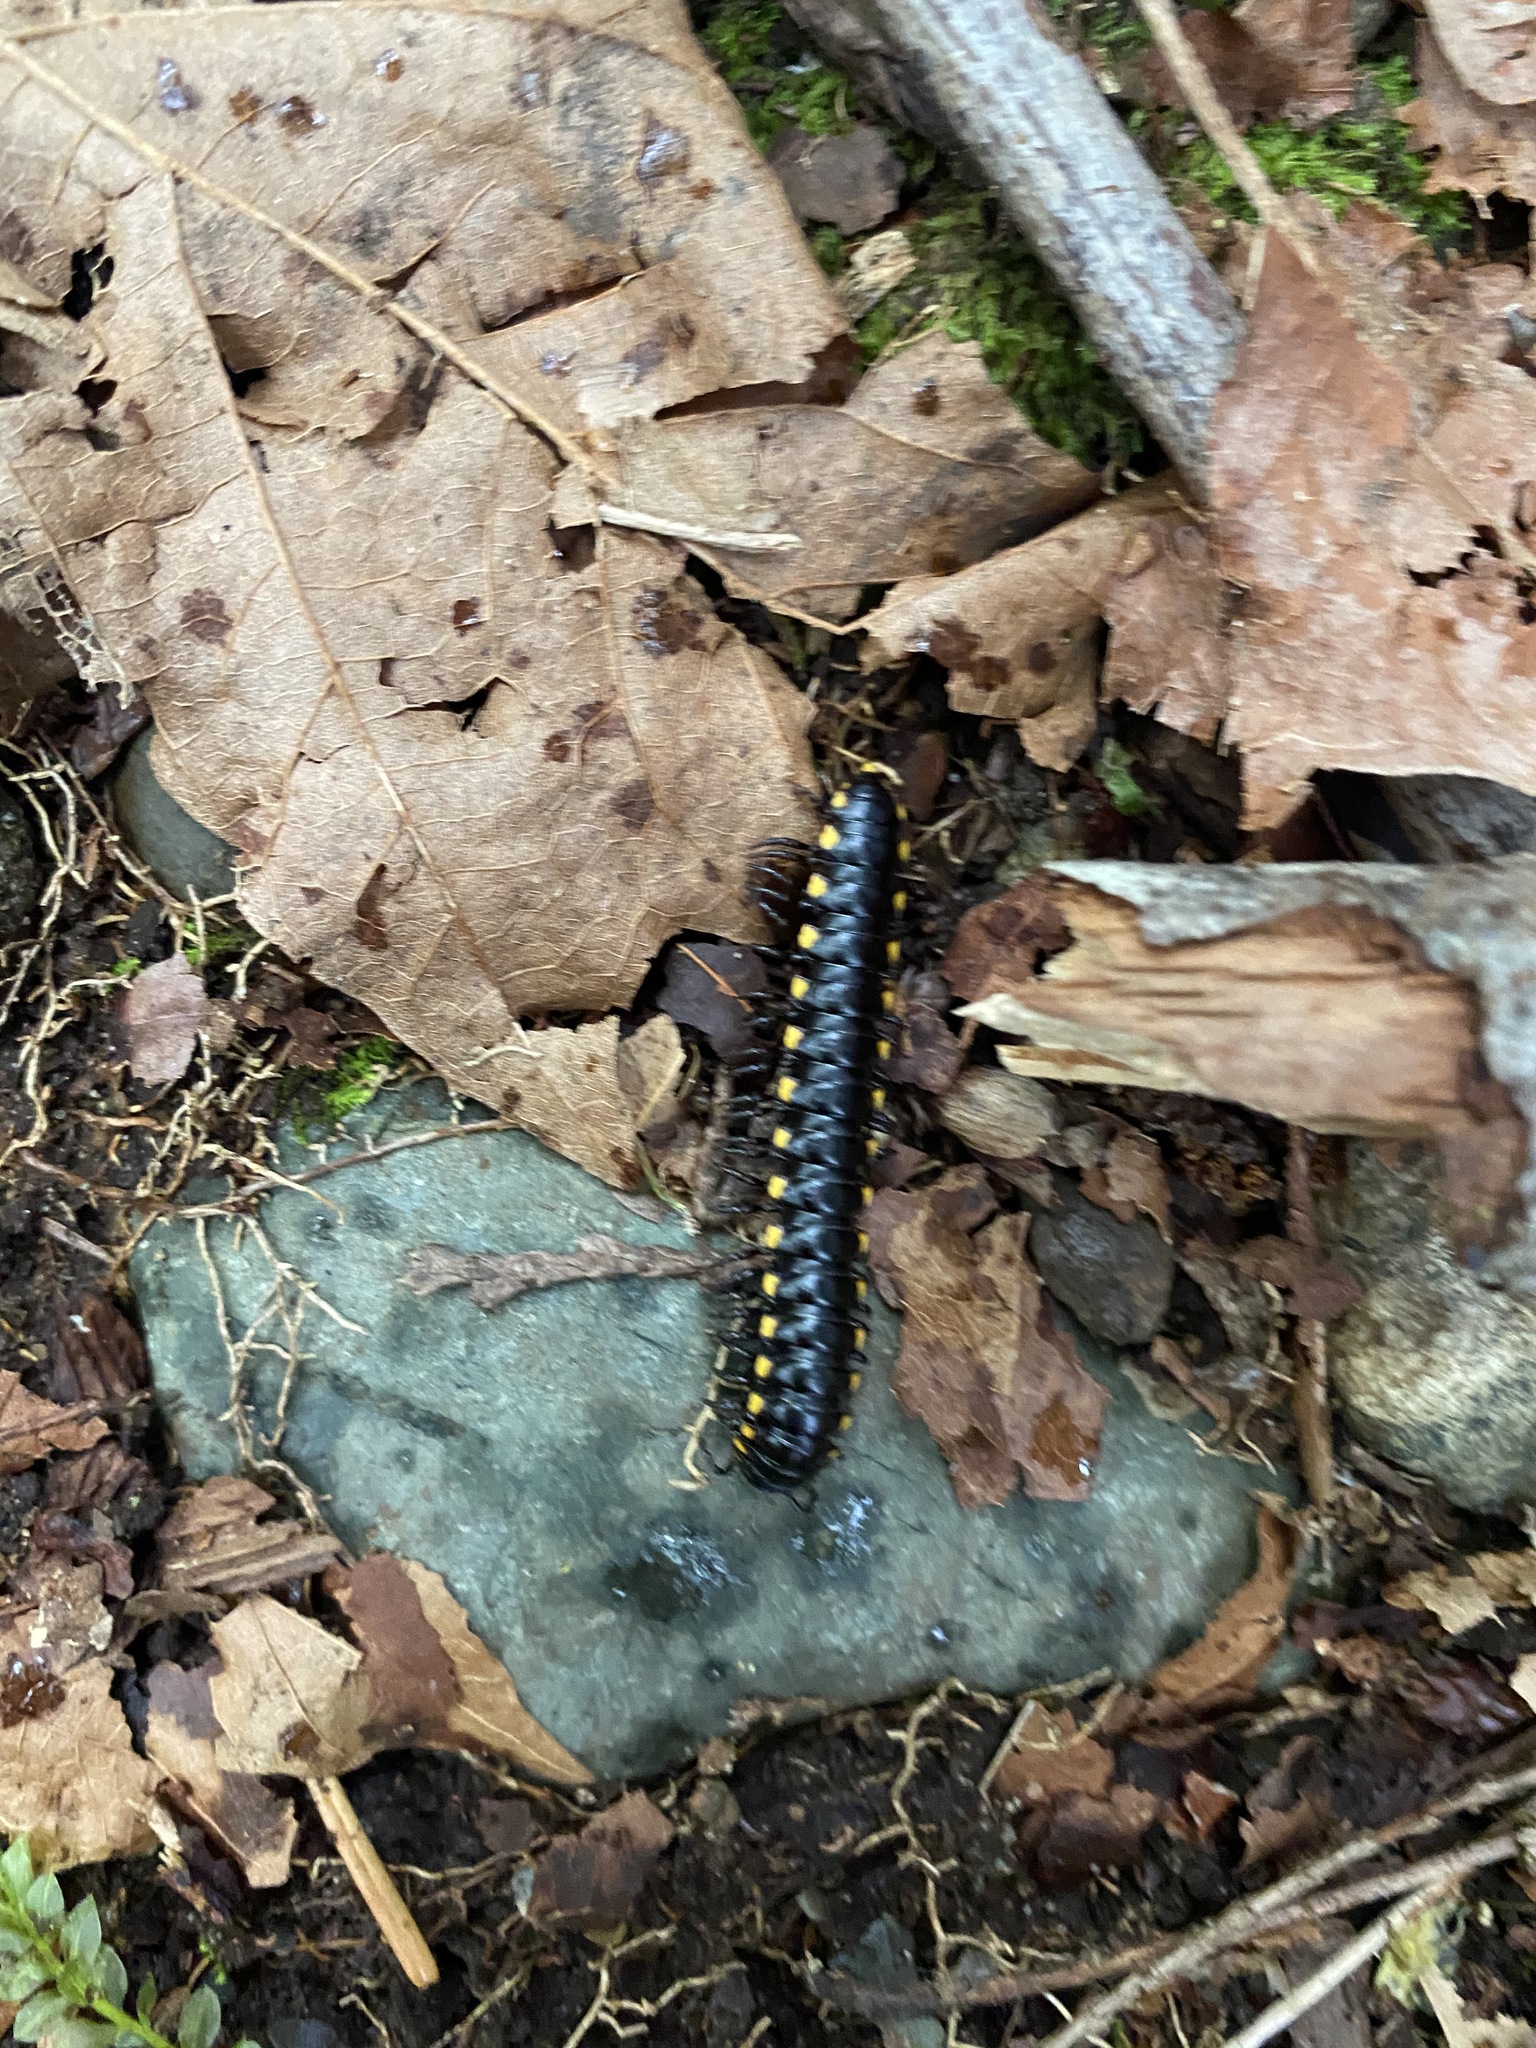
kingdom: Animalia
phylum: Arthropoda
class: Diplopoda
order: Polydesmida
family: Xystodesmidae
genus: Harpaphe
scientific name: Harpaphe haydeniana
